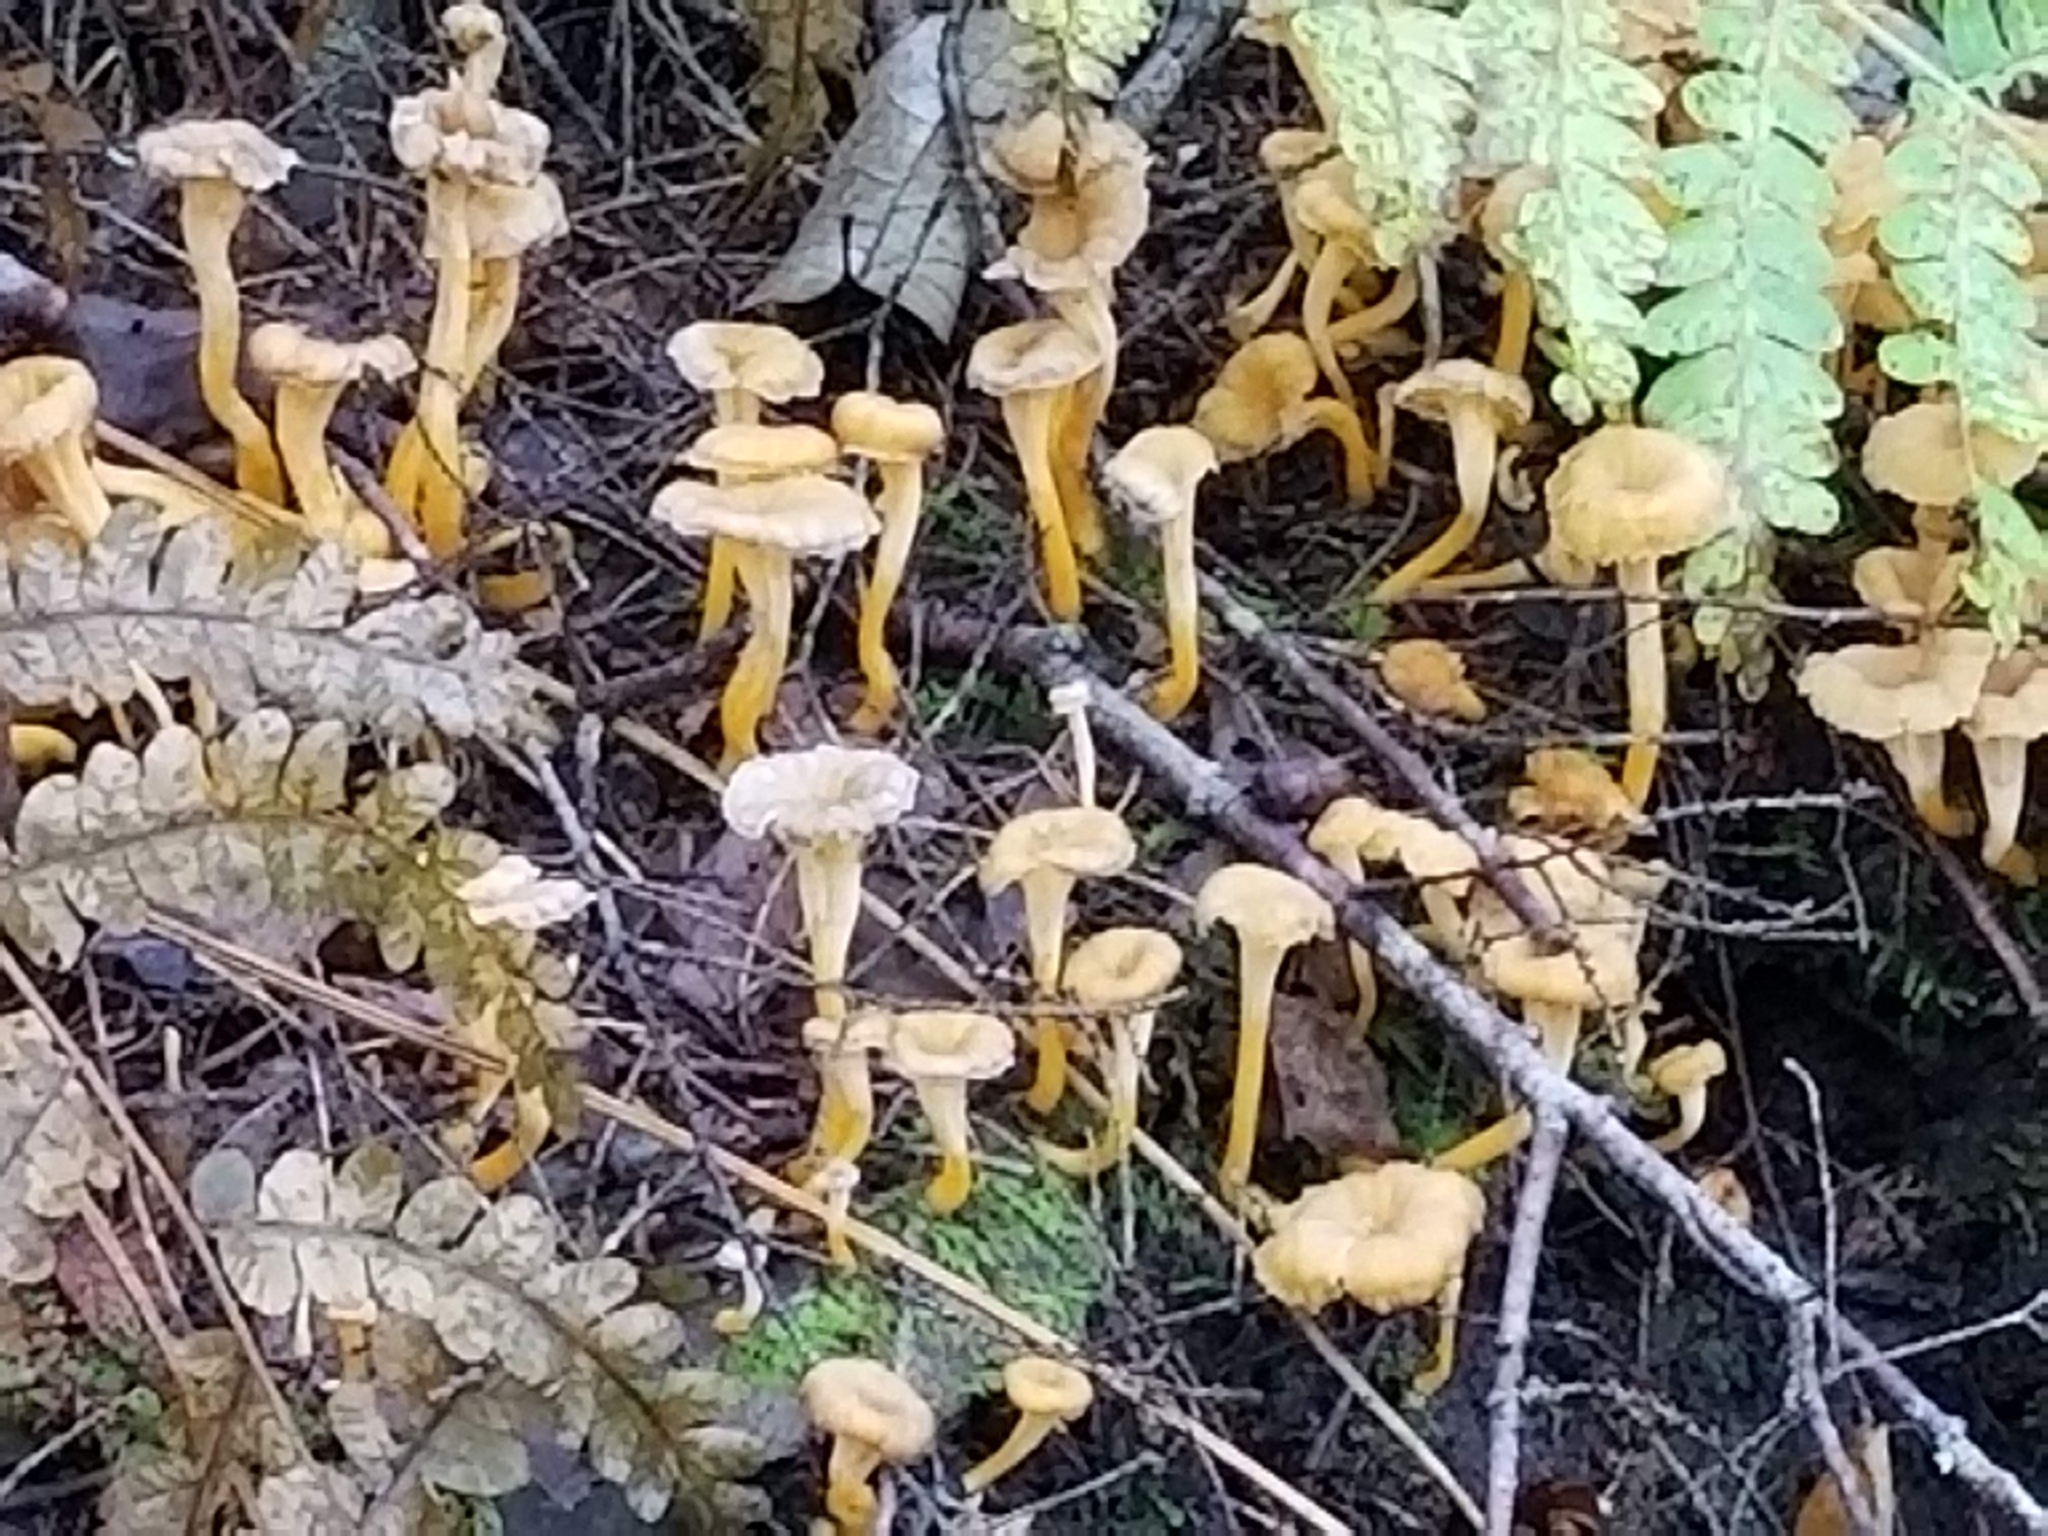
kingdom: Fungi
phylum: Basidiomycota
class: Agaricomycetes
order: Cantharellales
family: Hydnaceae
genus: Craterellus
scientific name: Craterellus tubaeformis
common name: Yellowfoot
